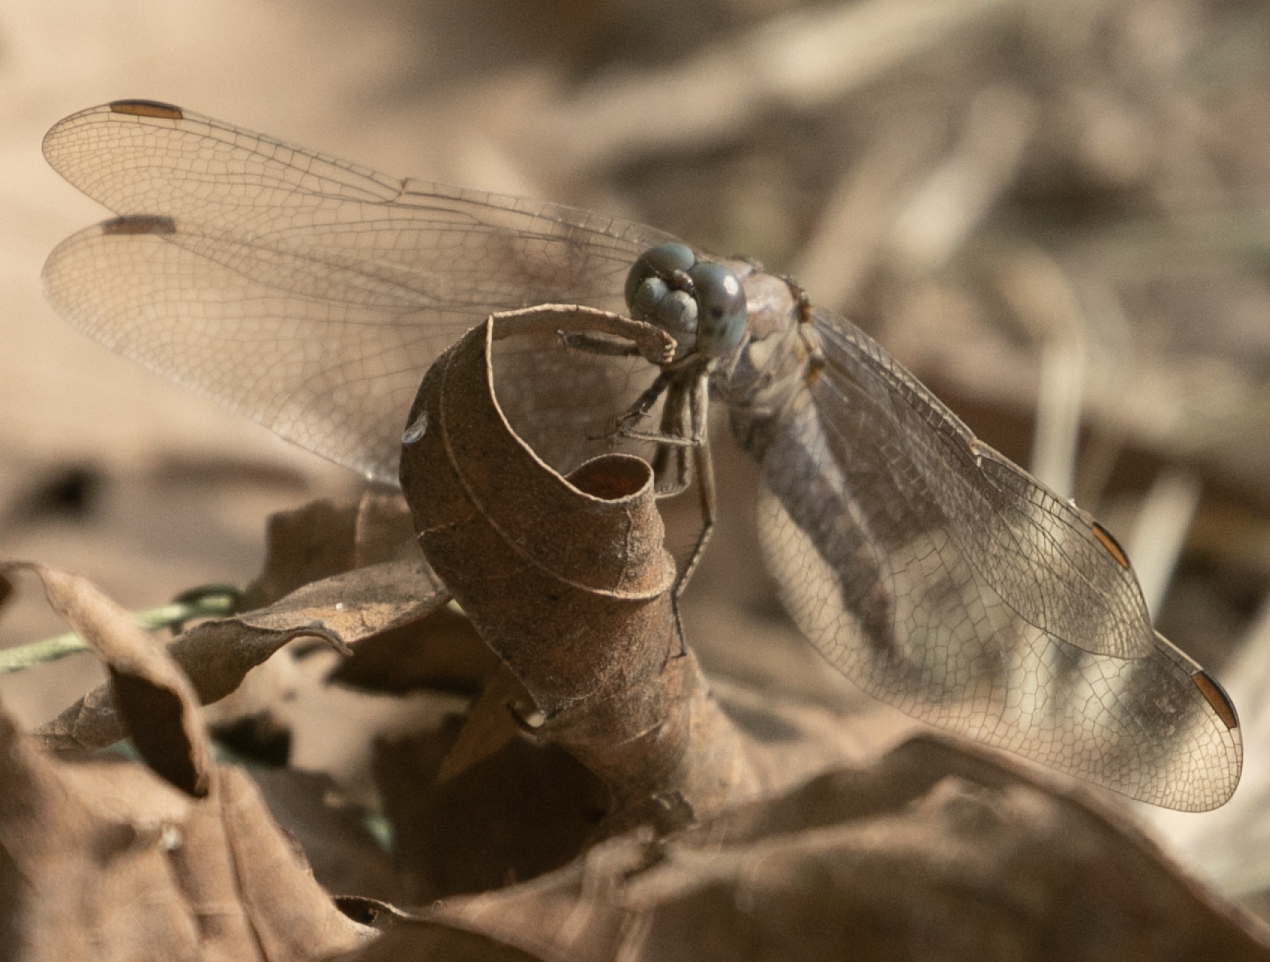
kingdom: Animalia
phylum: Arthropoda
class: Insecta
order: Odonata
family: Libellulidae
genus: Orthetrum
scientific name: Orthetrum brunneum
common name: Southern skimmer
